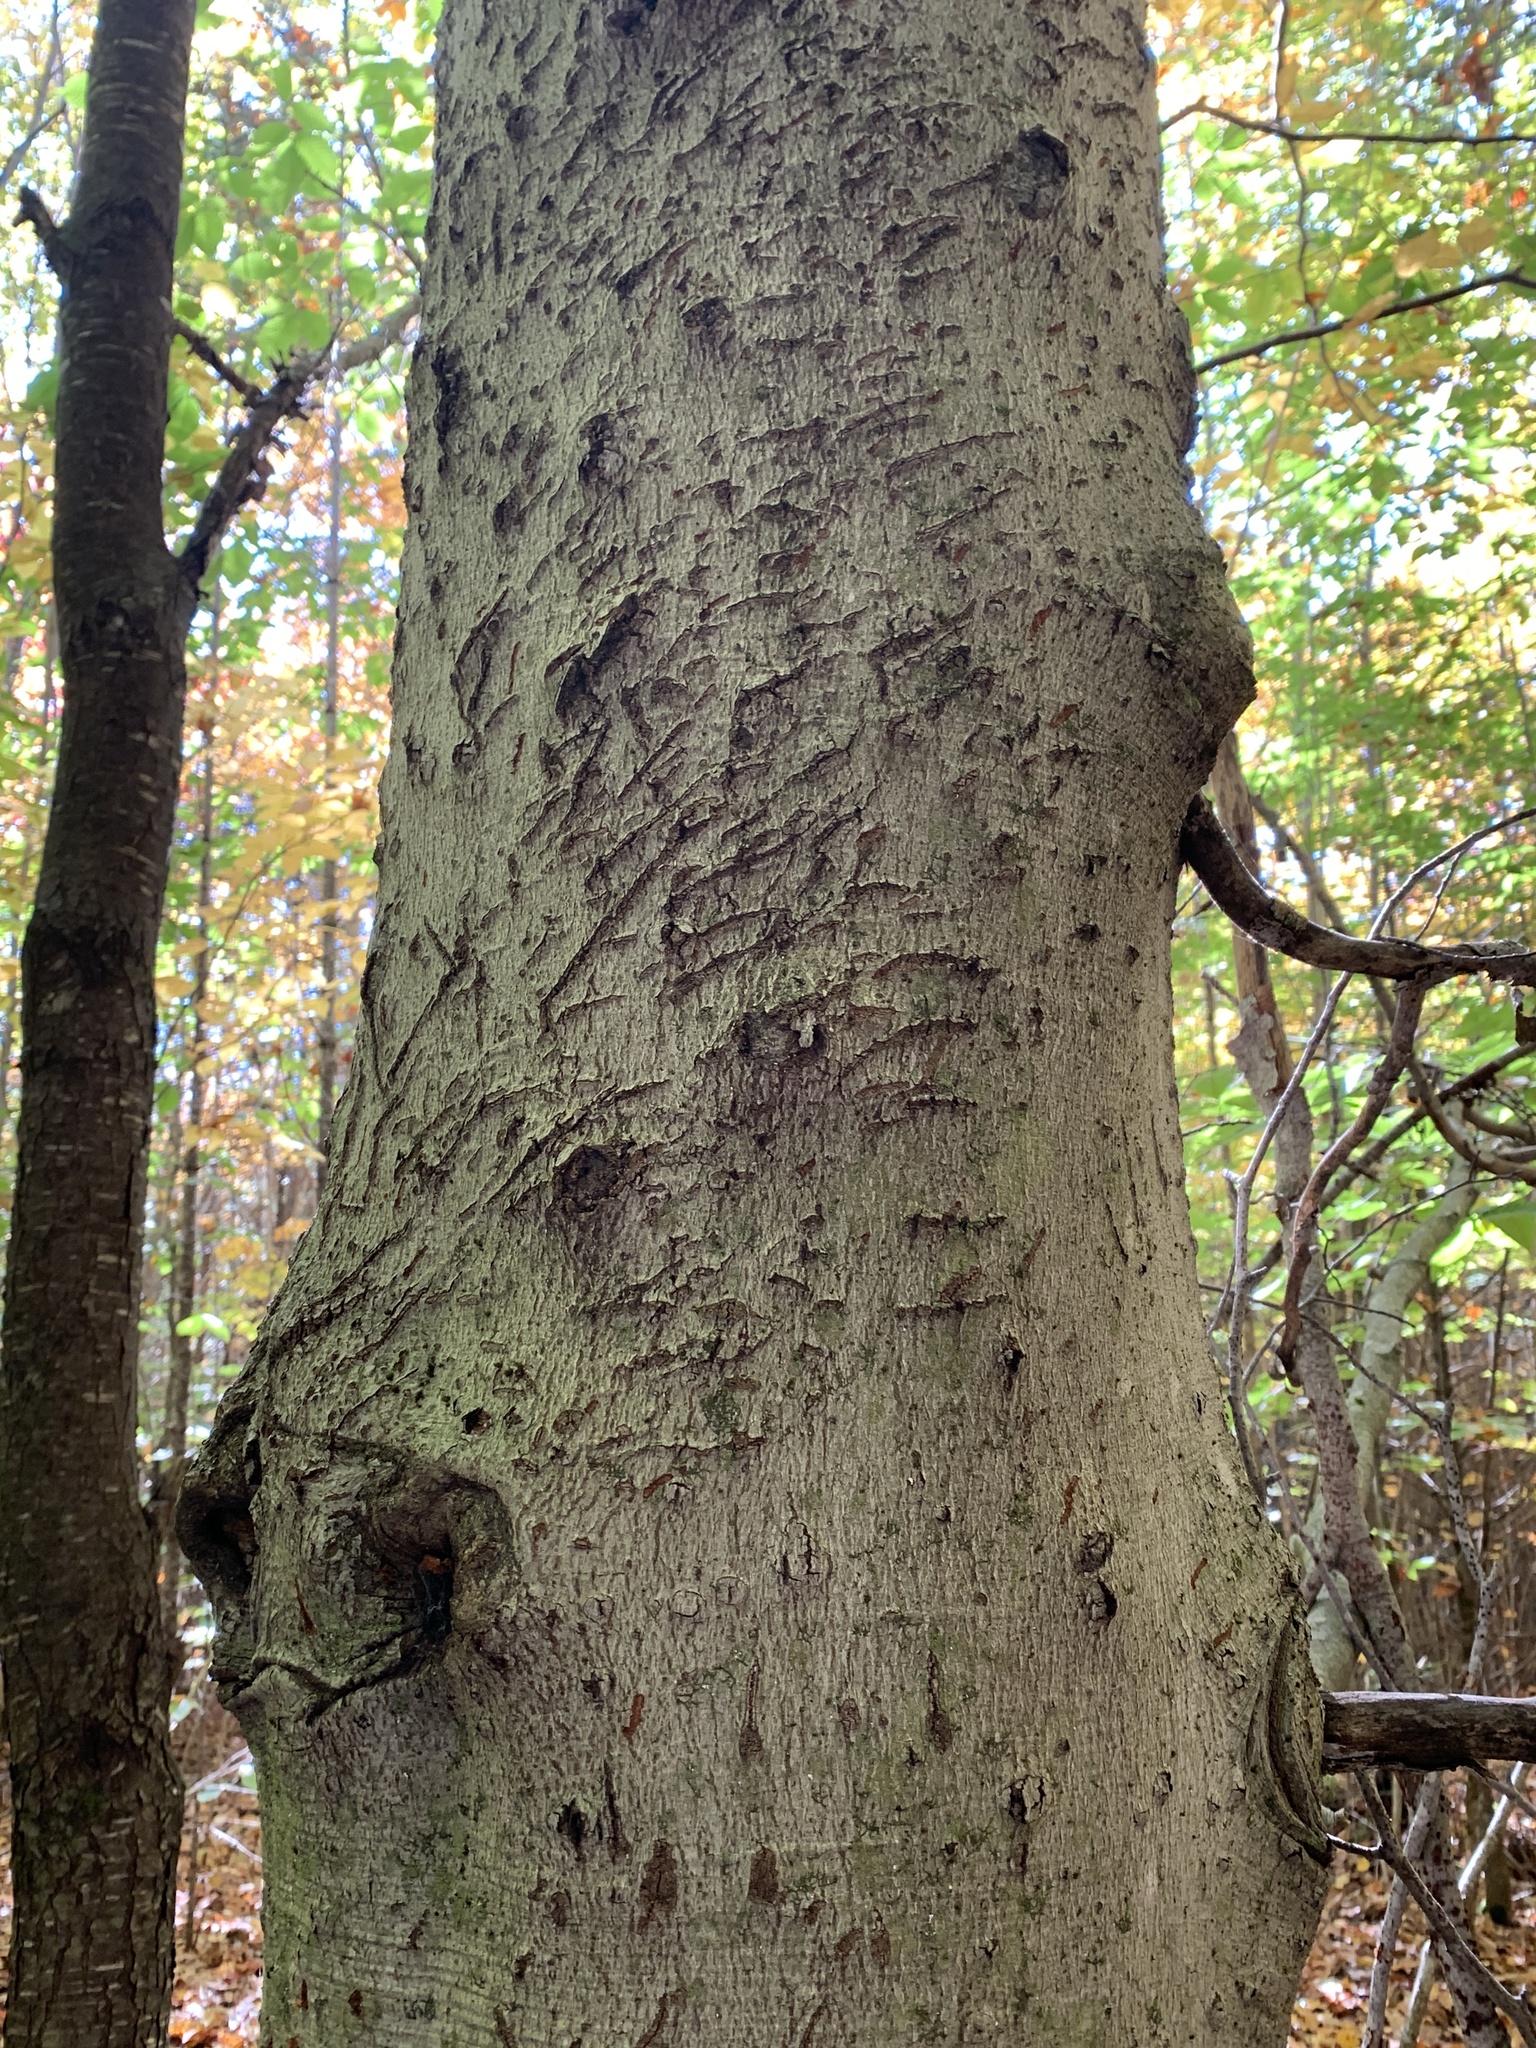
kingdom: Animalia
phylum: Chordata
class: Mammalia
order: Carnivora
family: Ursidae
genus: Ursus
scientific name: Ursus americanus
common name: American black bear
